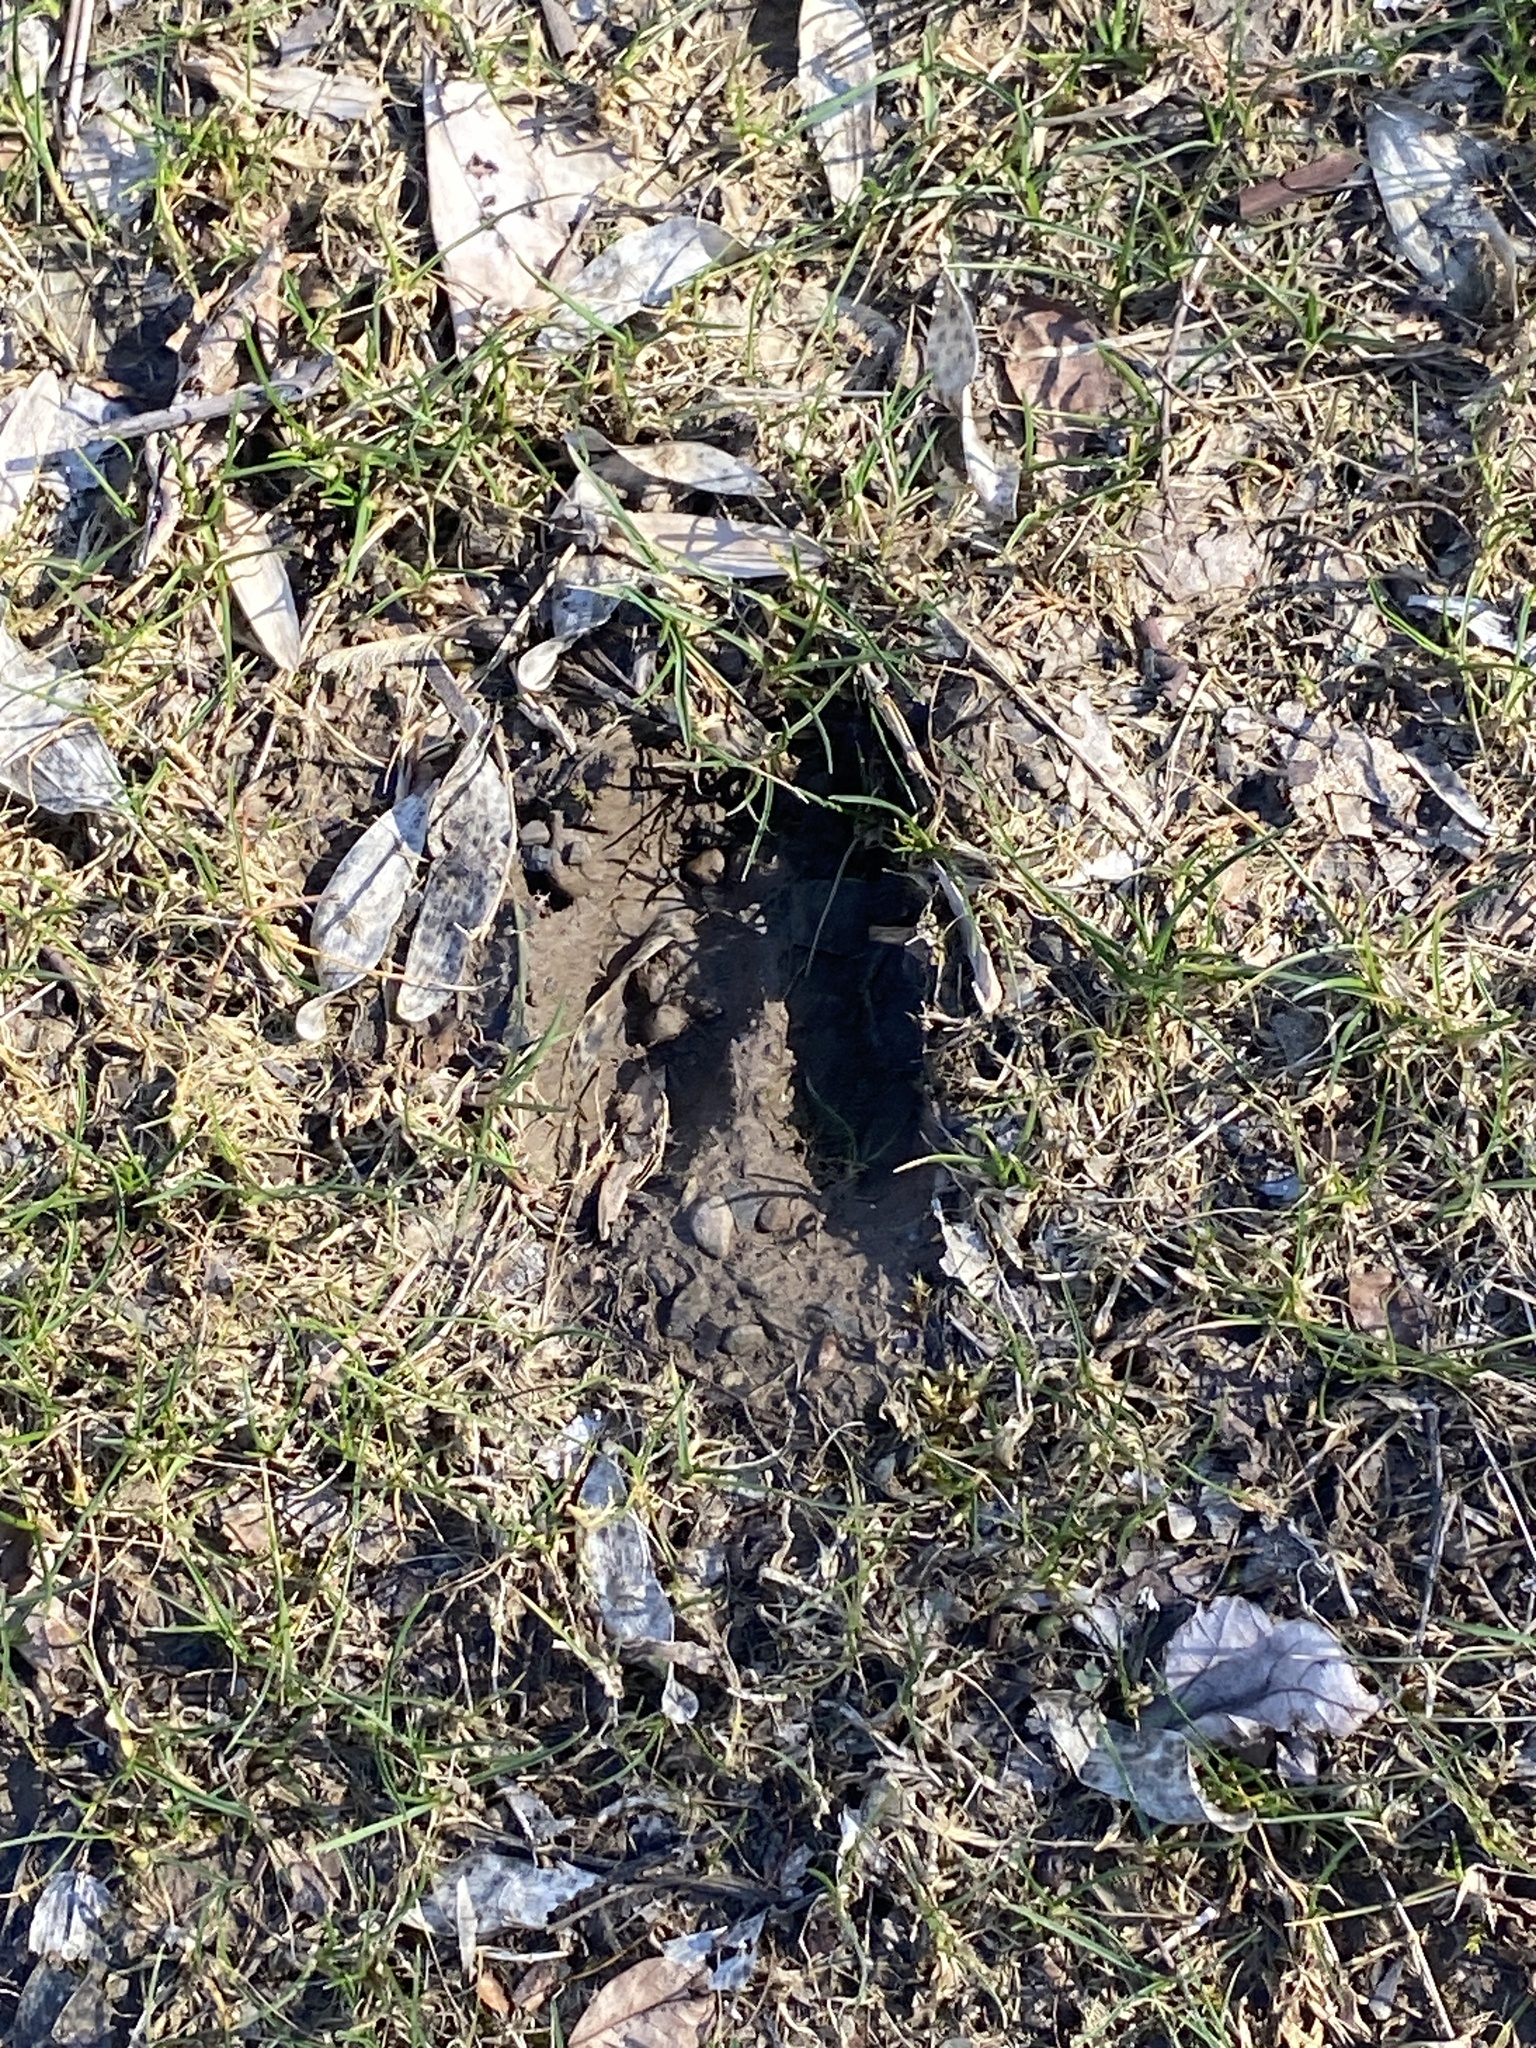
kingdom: Animalia
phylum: Chordata
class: Mammalia
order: Artiodactyla
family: Cervidae
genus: Odocoileus
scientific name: Odocoileus virginianus
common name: White-tailed deer
